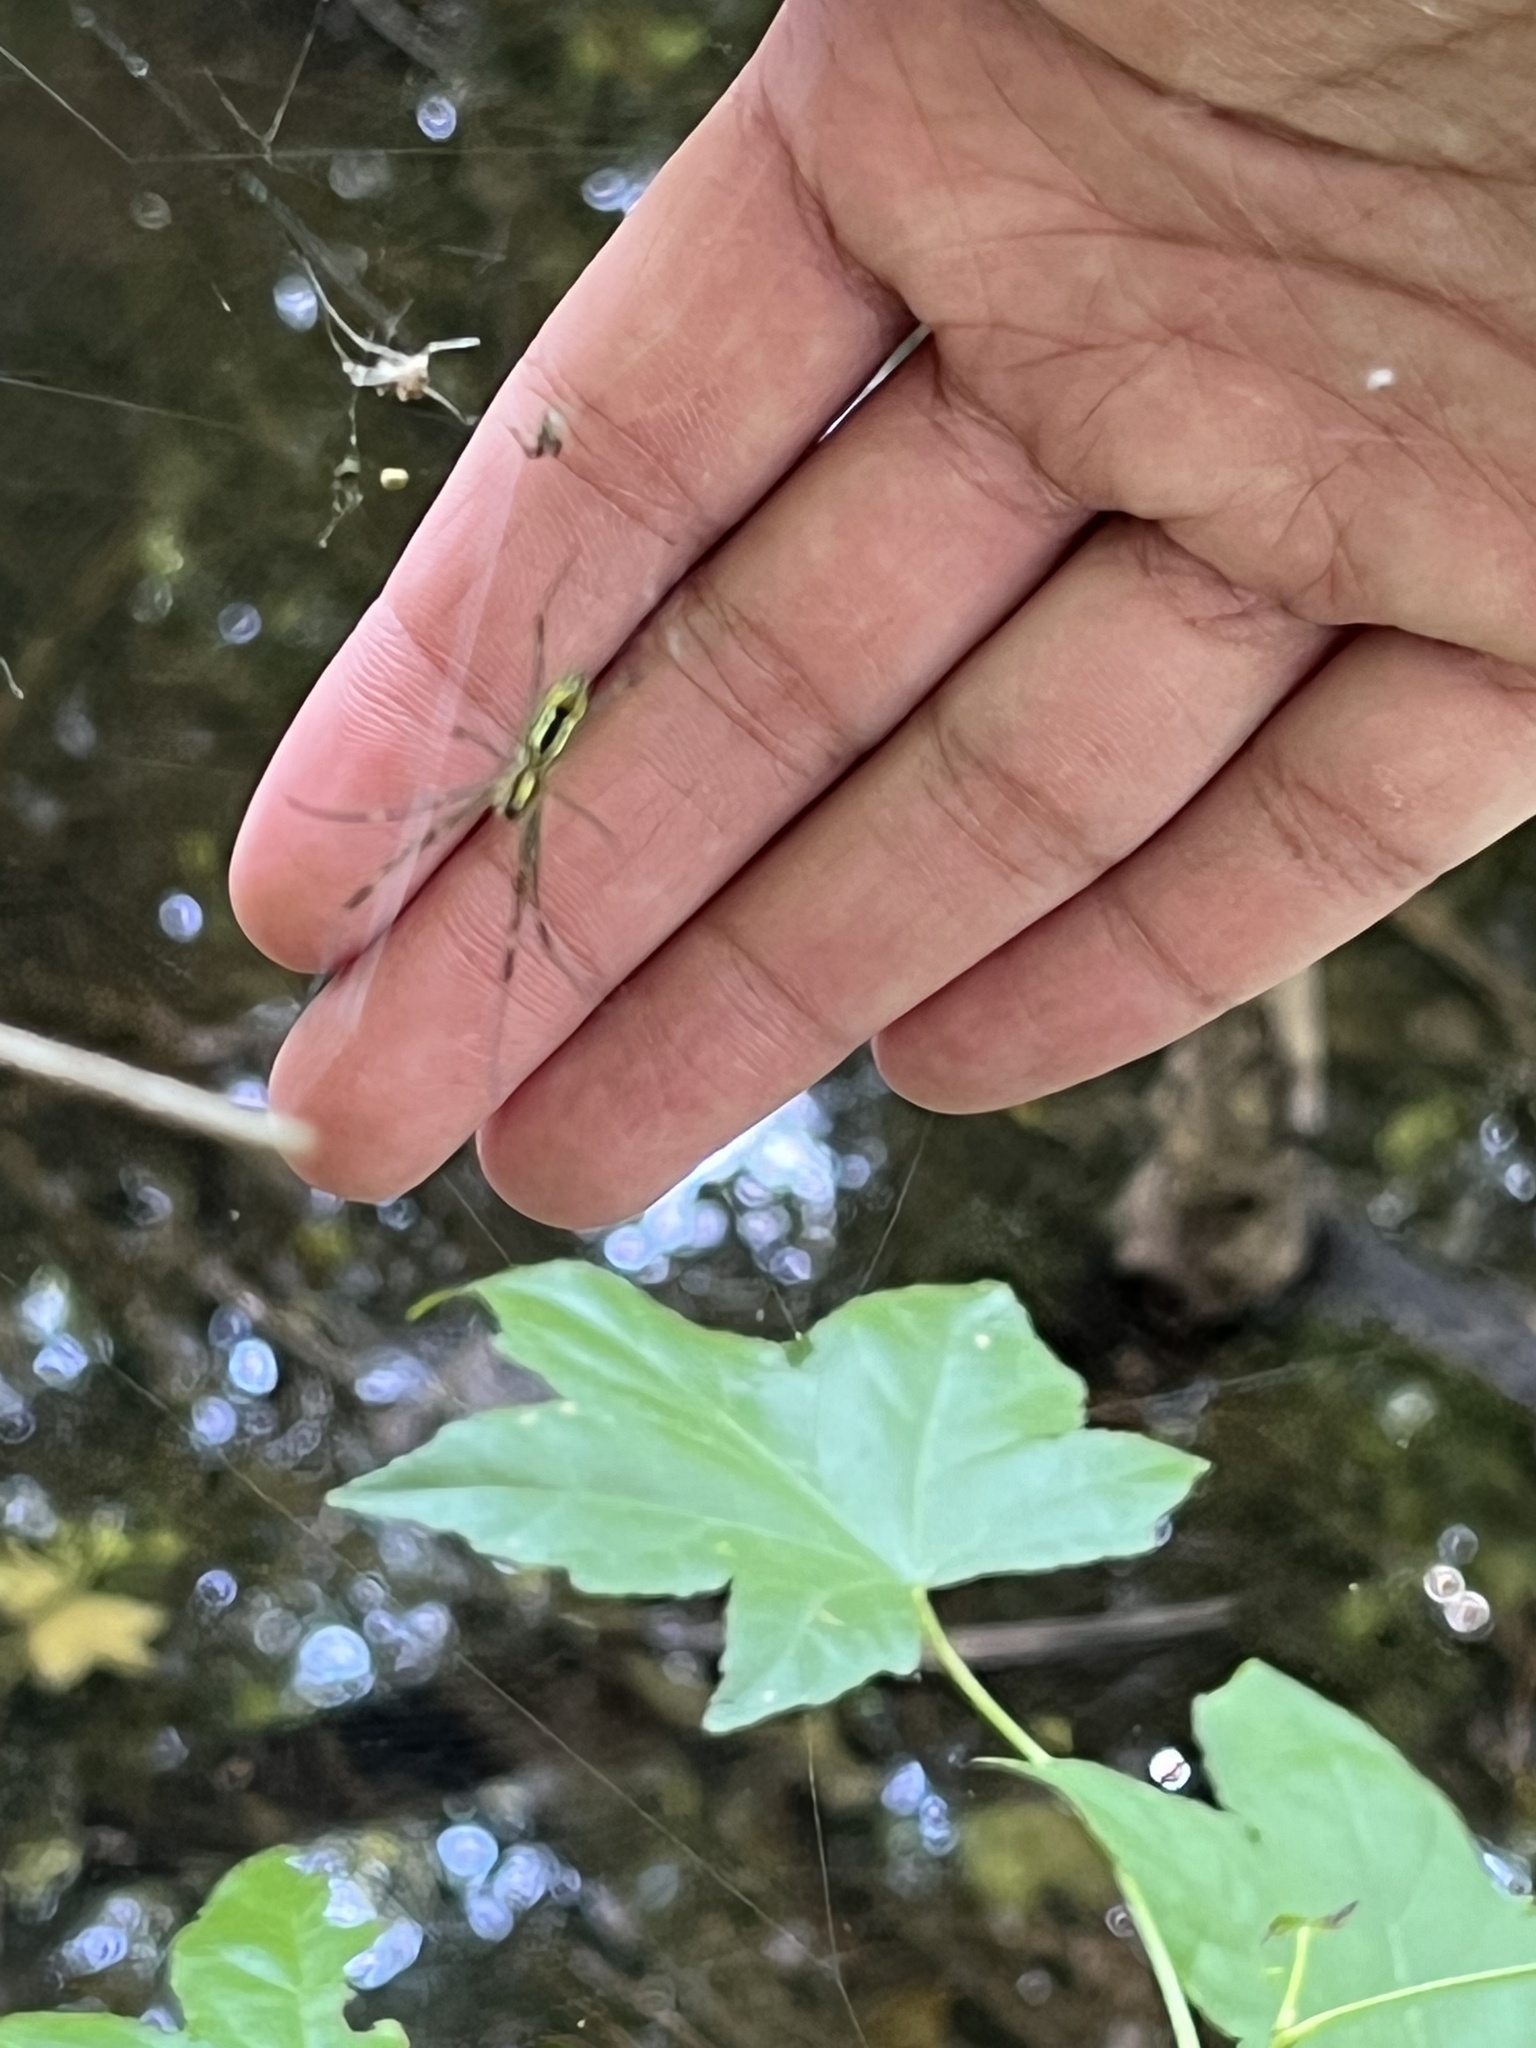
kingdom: Animalia
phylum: Arthropoda
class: Arachnida
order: Araneae
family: Araneidae
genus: Trichonephila
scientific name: Trichonephila clavata
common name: Jorō spider
